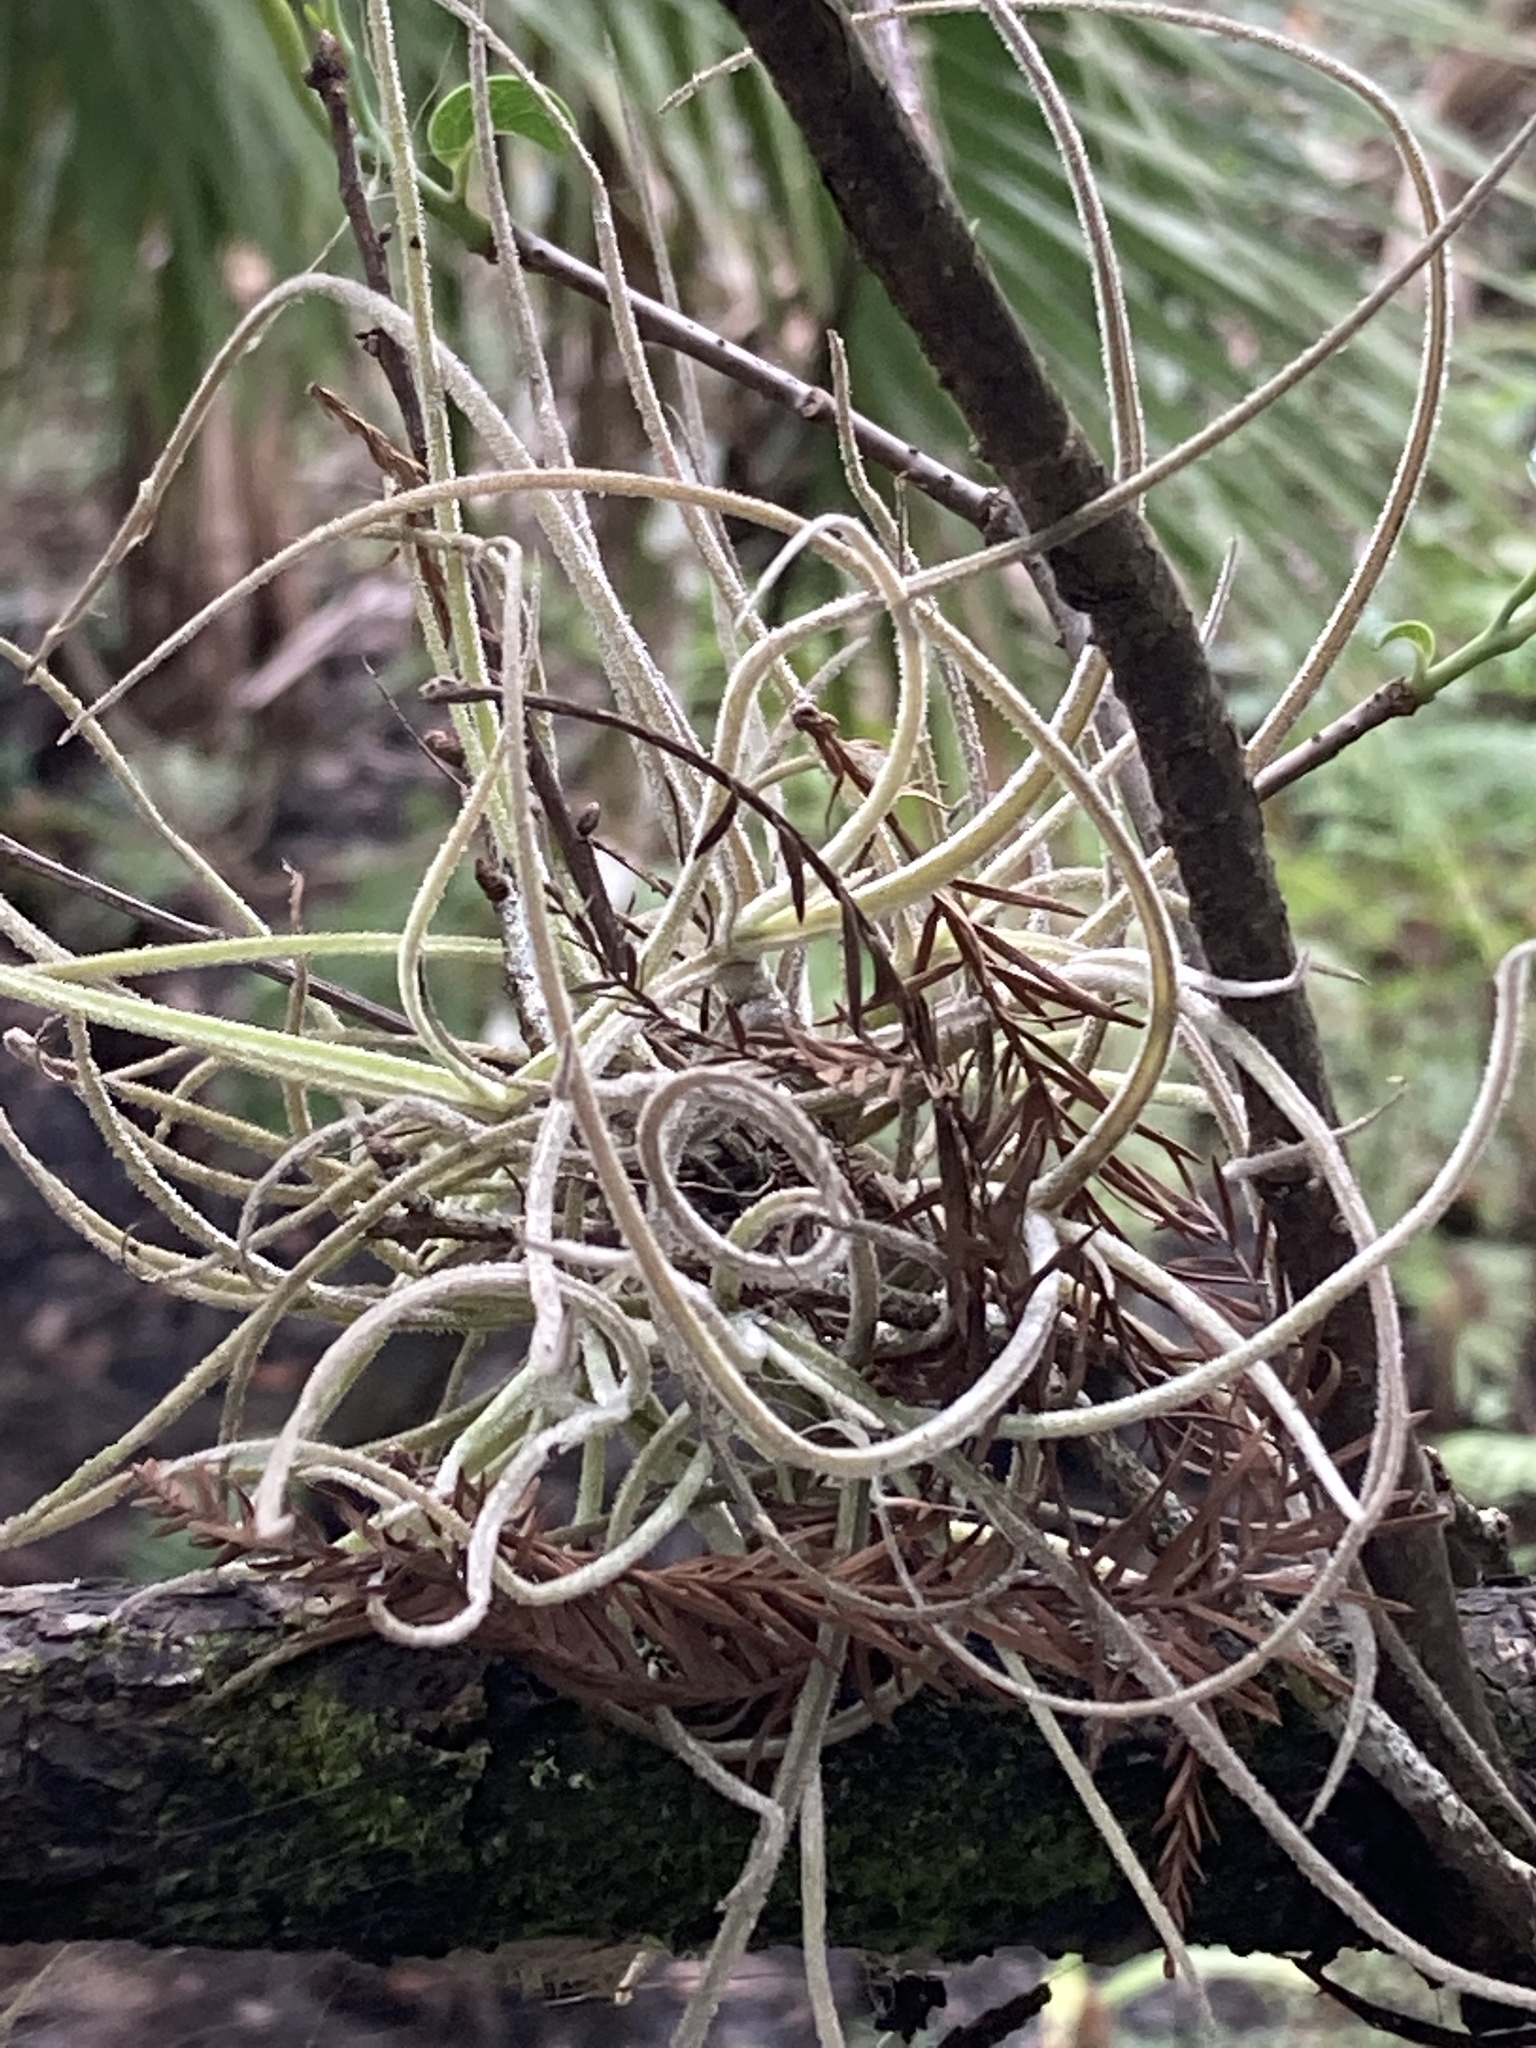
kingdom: Plantae
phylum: Tracheophyta
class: Liliopsida
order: Poales
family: Bromeliaceae
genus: Tillandsia
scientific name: Tillandsia recurvata
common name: Small ballmoss
